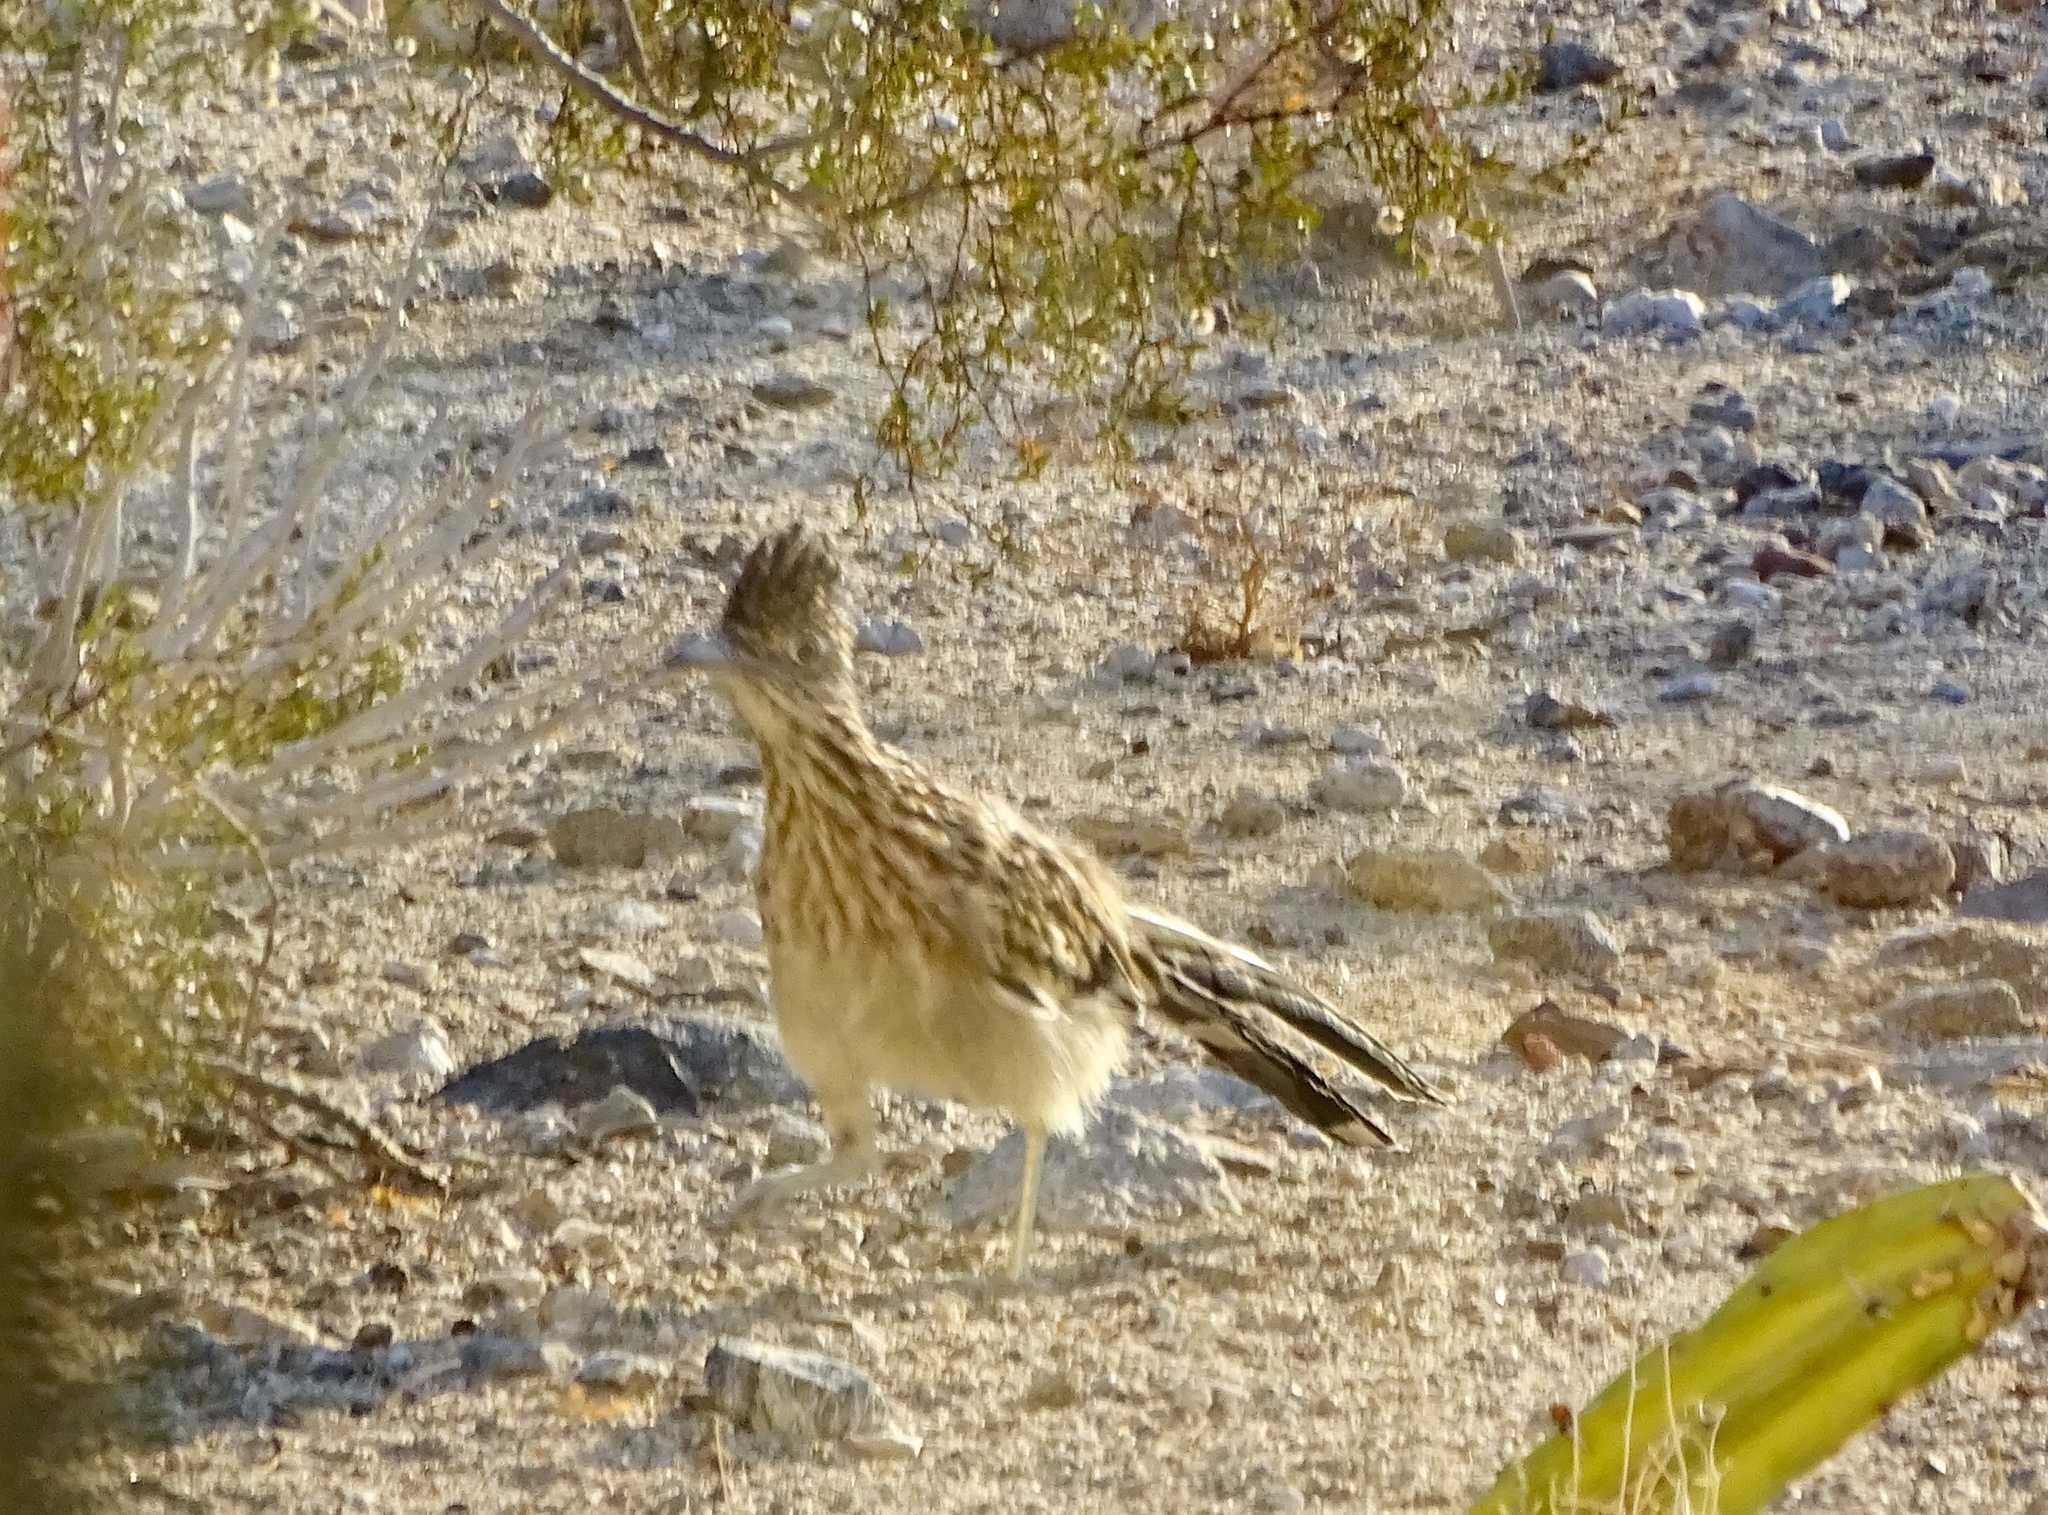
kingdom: Animalia
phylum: Chordata
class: Aves
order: Cuculiformes
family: Cuculidae
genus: Geococcyx
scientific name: Geococcyx californianus
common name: Greater roadrunner
